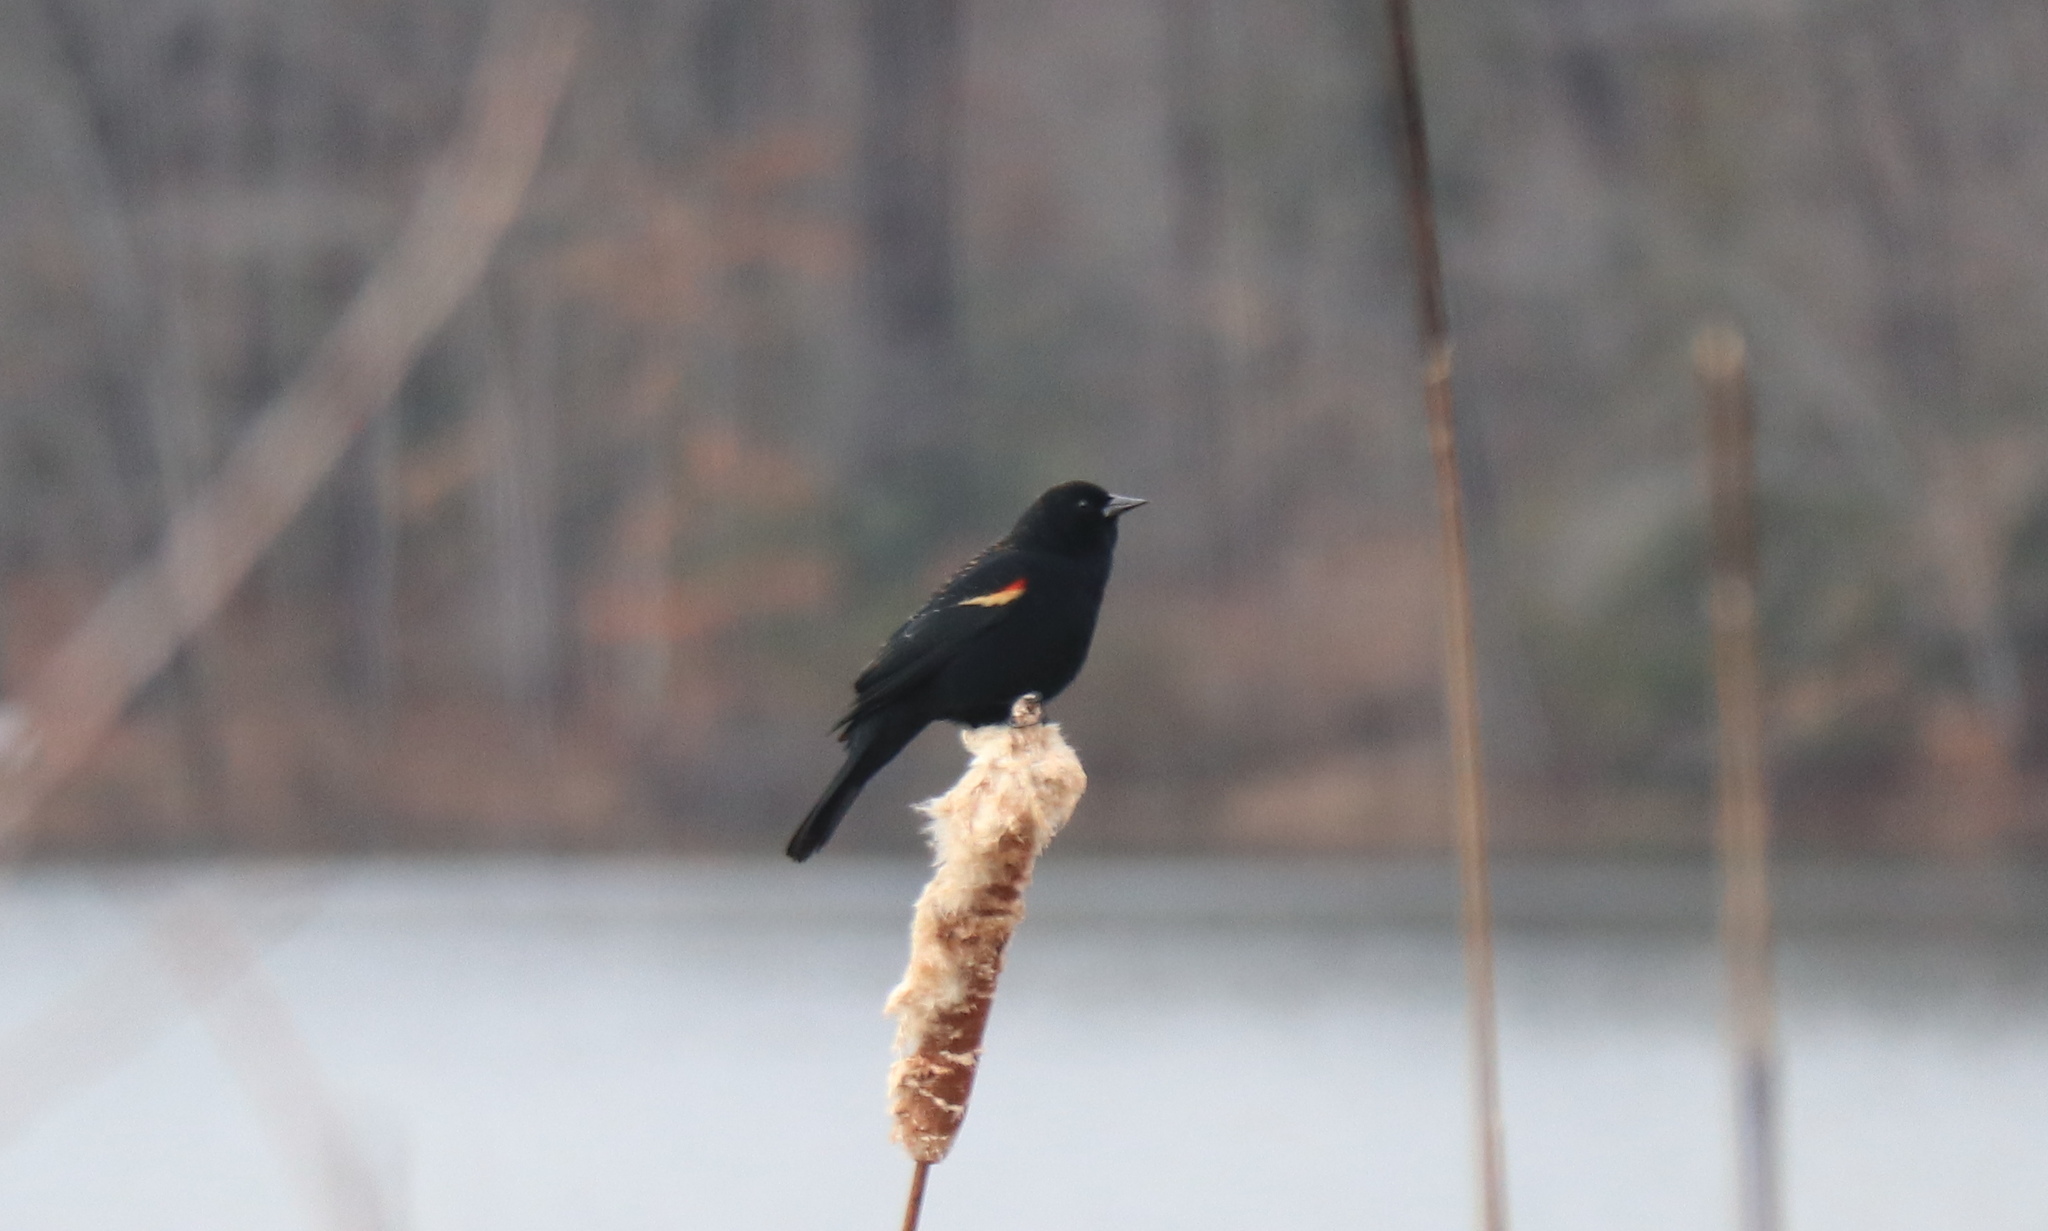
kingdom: Animalia
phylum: Chordata
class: Aves
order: Passeriformes
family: Icteridae
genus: Agelaius
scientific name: Agelaius phoeniceus
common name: Red-winged blackbird
